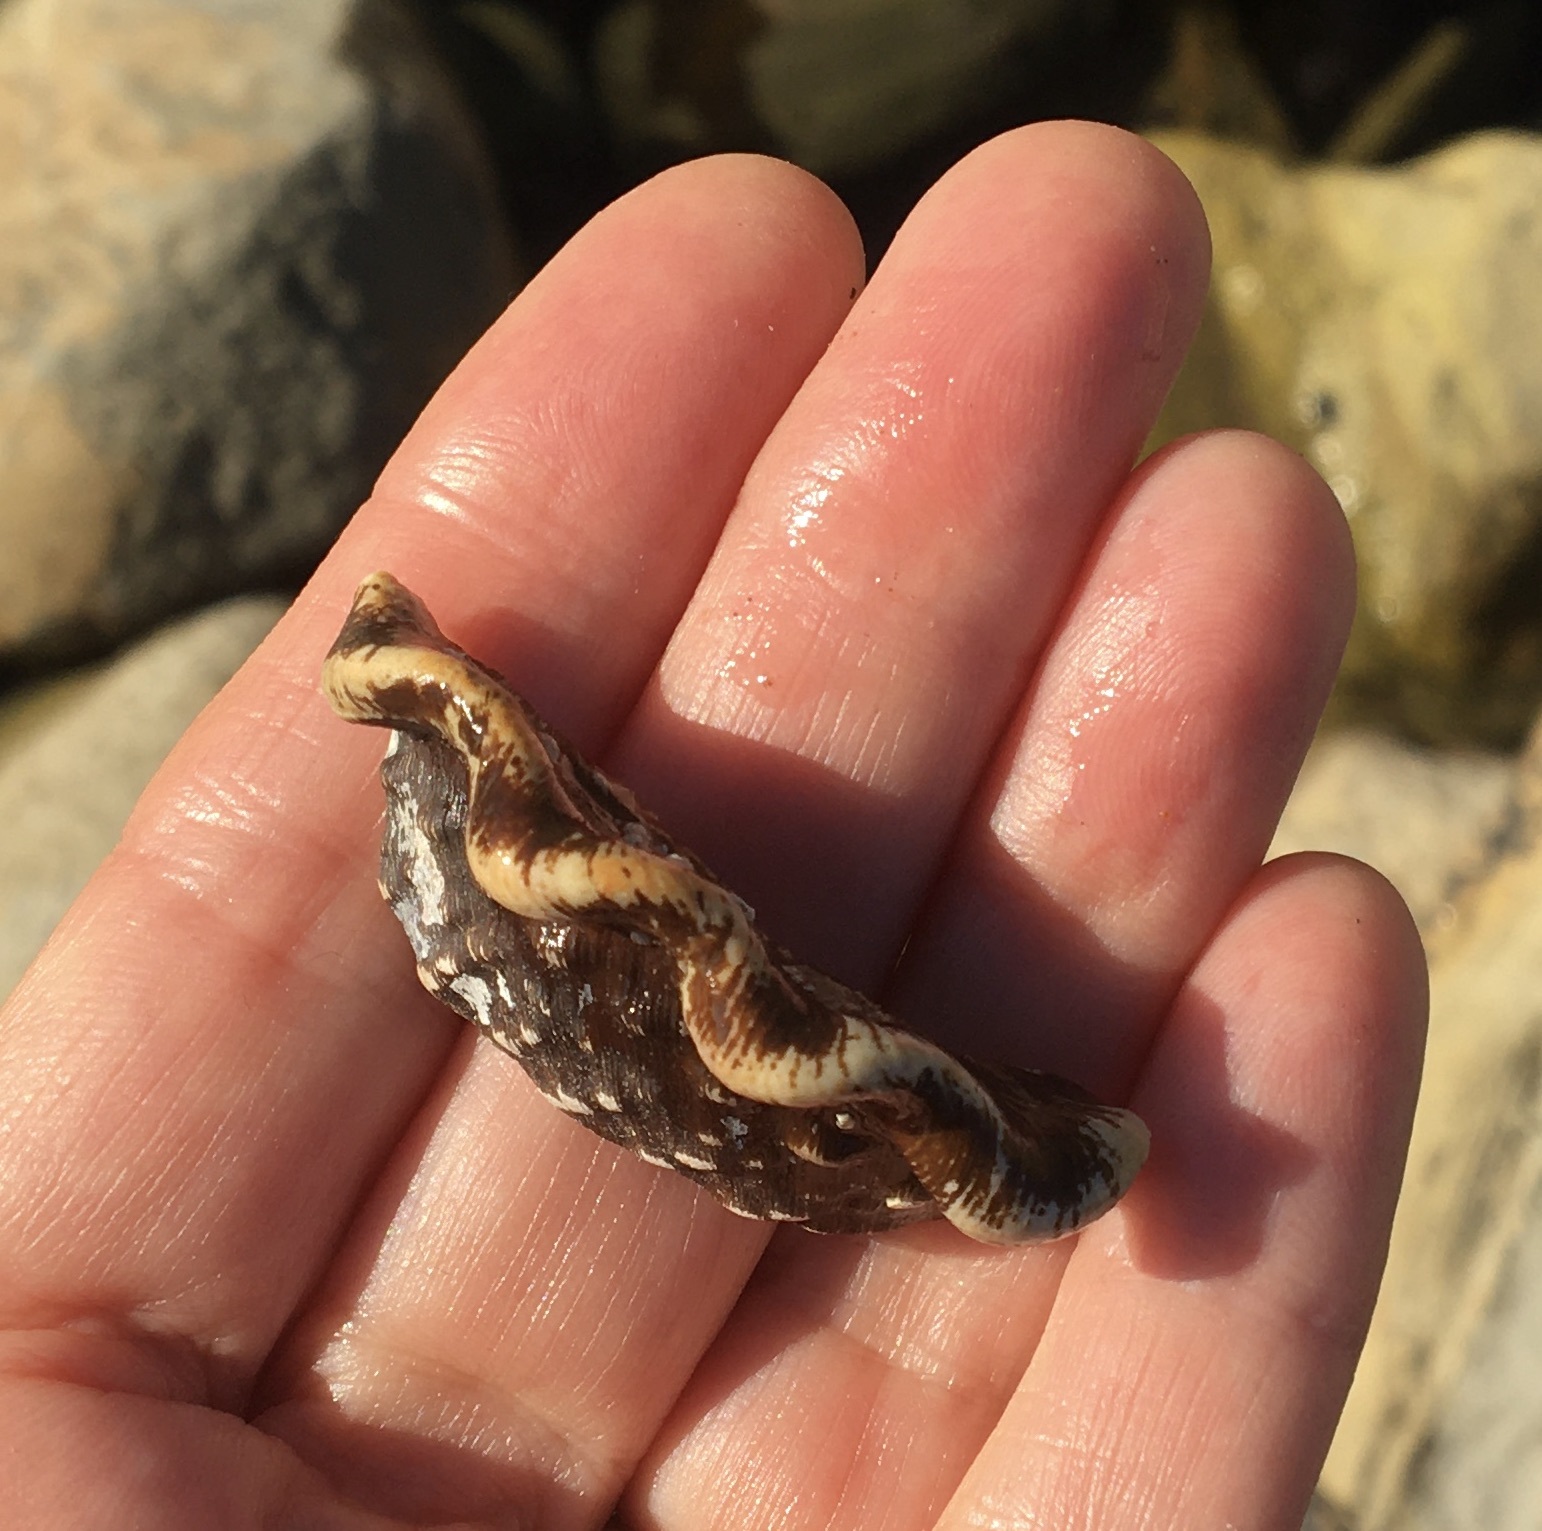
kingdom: Animalia
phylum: Mollusca
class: Gastropoda
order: Trochida
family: Turbinidae
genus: Megastraea
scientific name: Megastraea undosa
